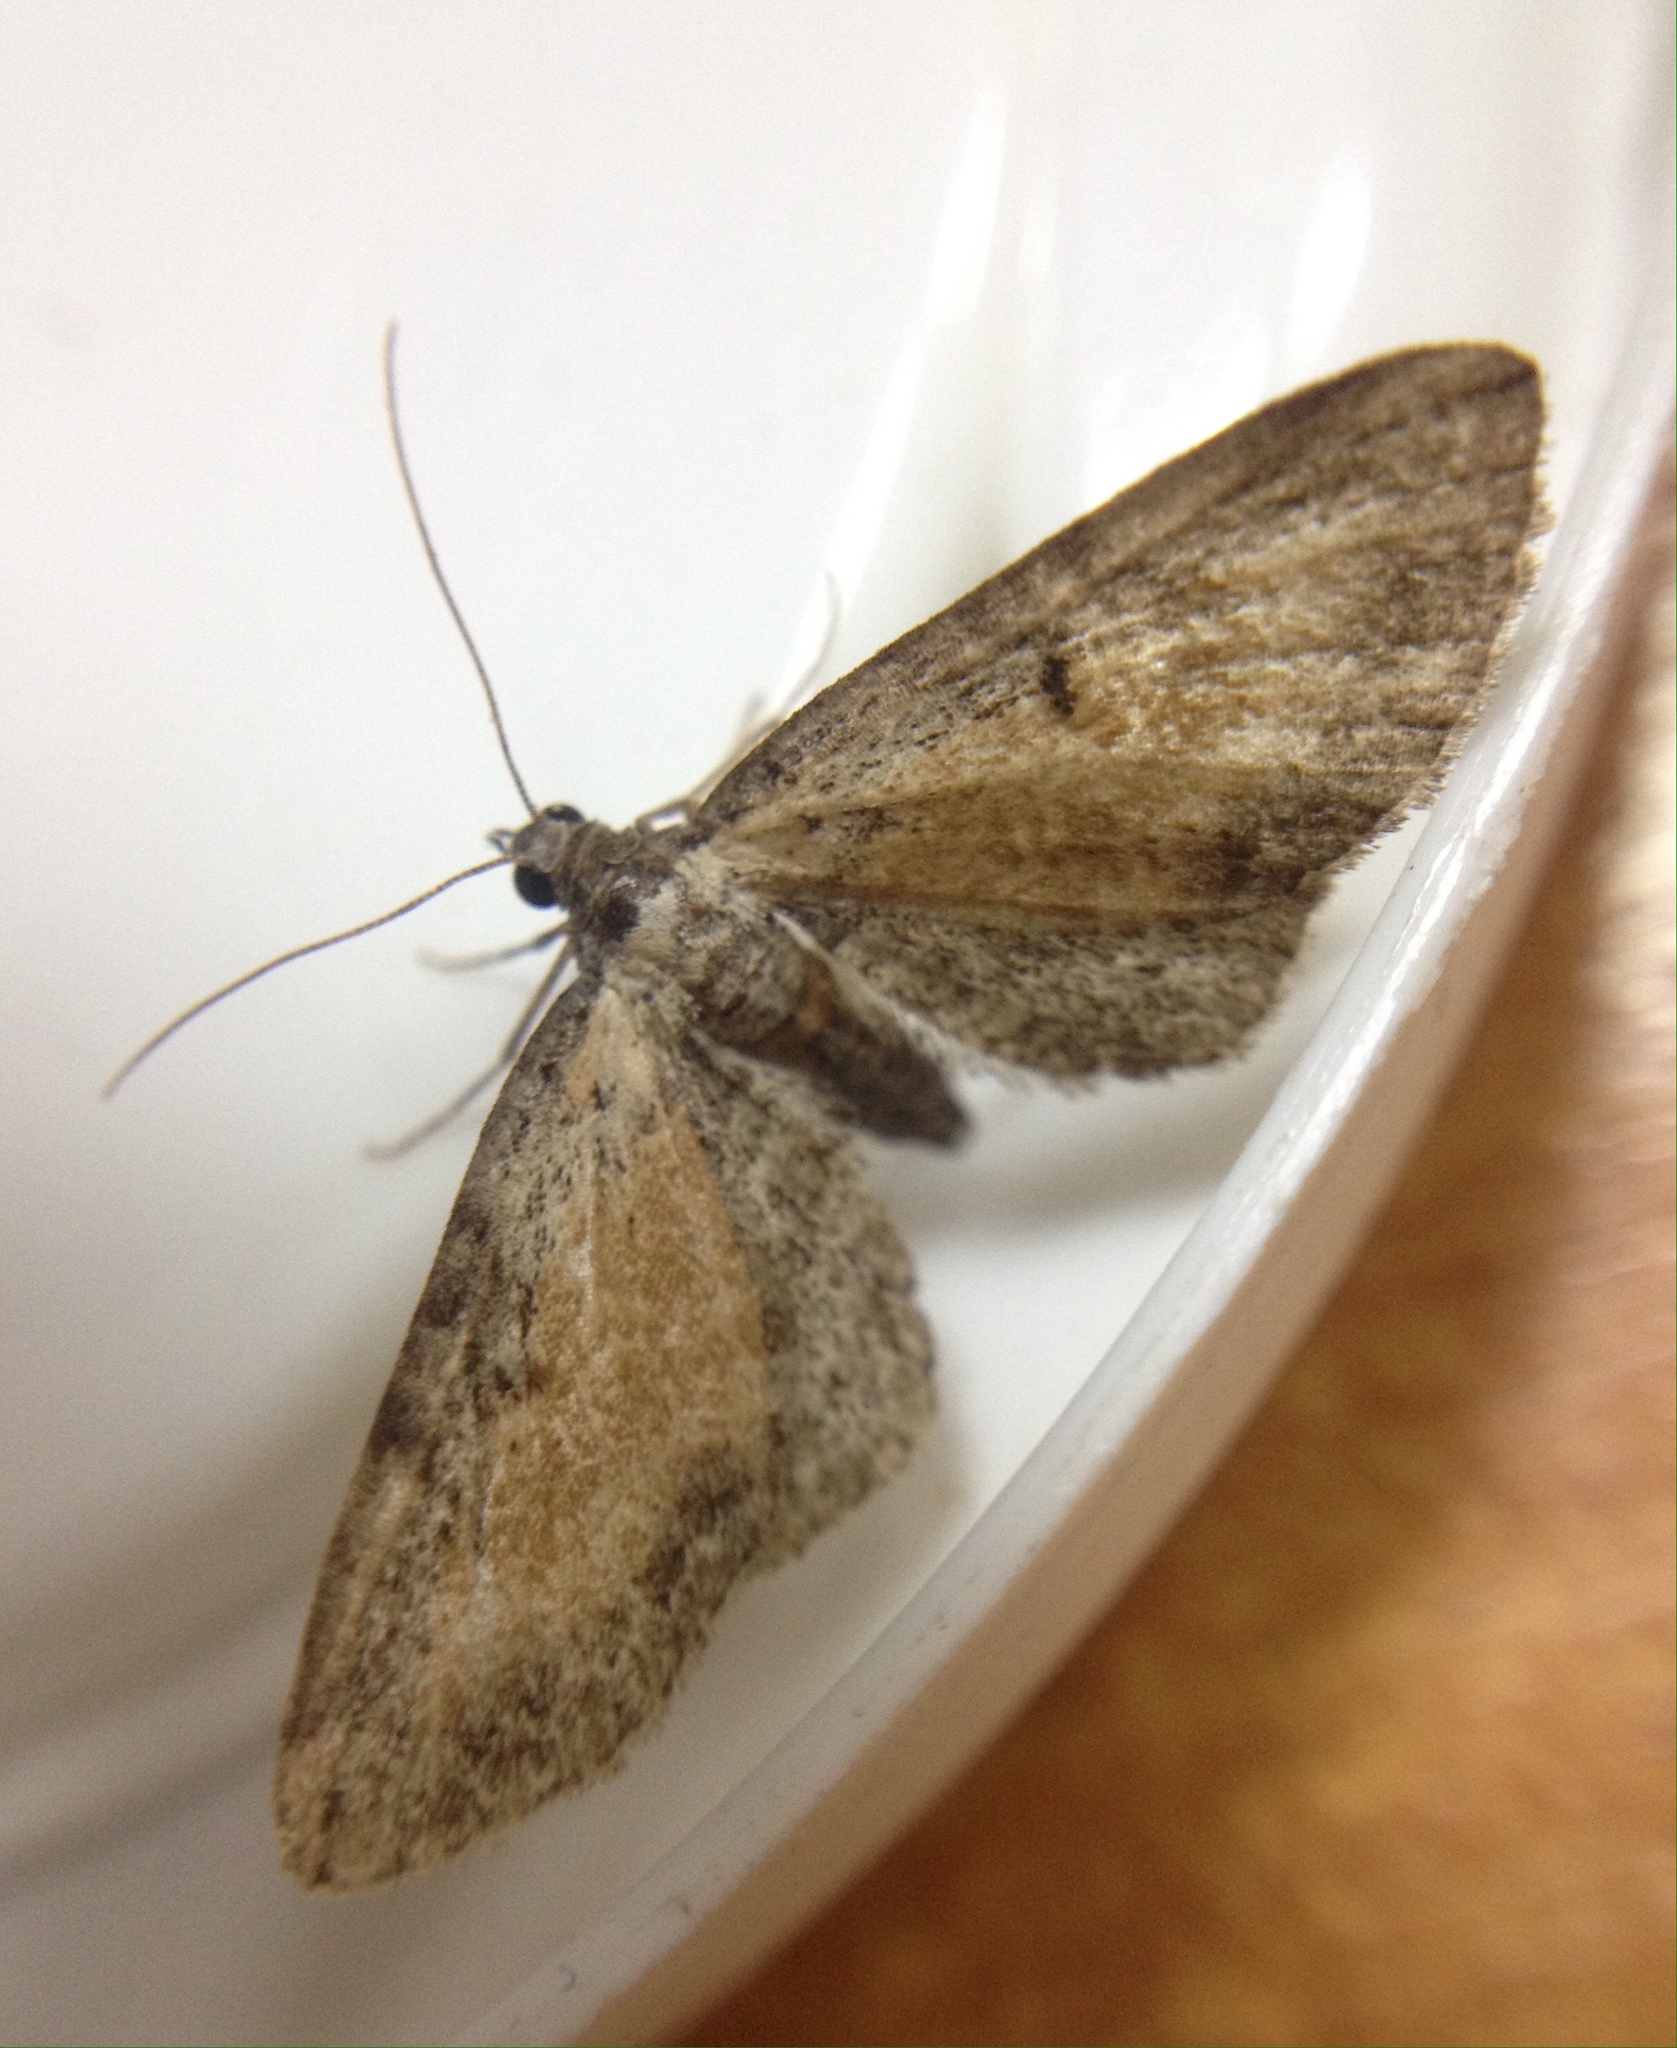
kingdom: Animalia
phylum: Arthropoda
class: Insecta
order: Lepidoptera
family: Geometridae
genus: Eupithecia
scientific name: Eupithecia icterata
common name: Tawny speckled pug
